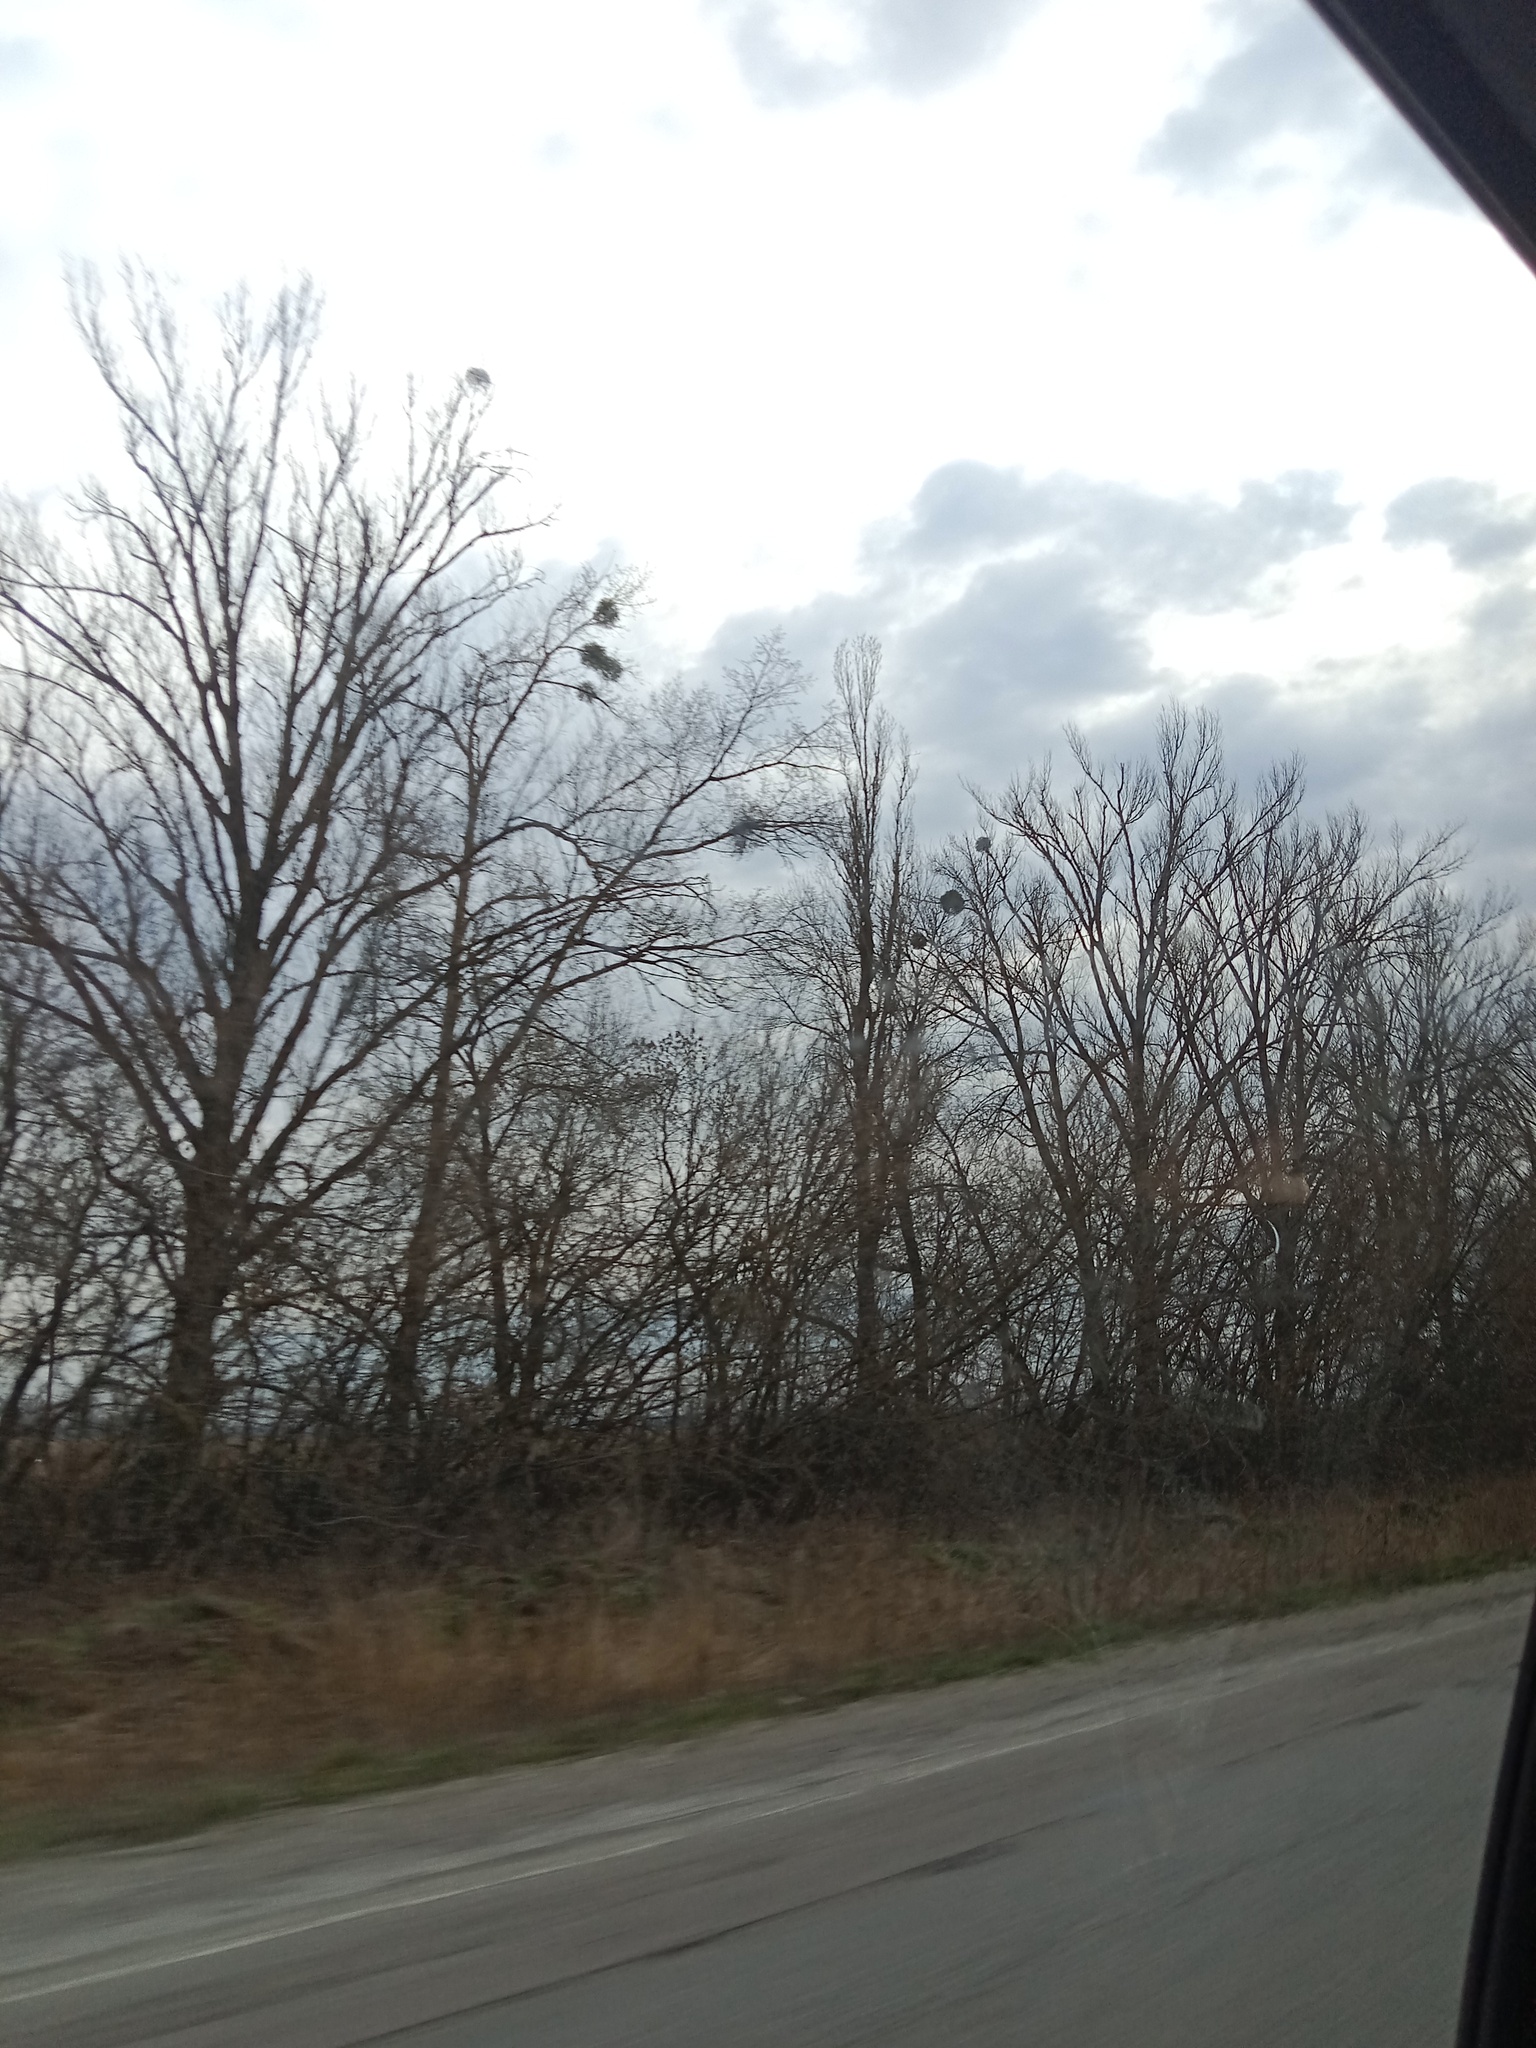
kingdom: Plantae
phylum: Tracheophyta
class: Magnoliopsida
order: Santalales
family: Viscaceae
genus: Viscum
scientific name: Viscum album
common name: Mistletoe
